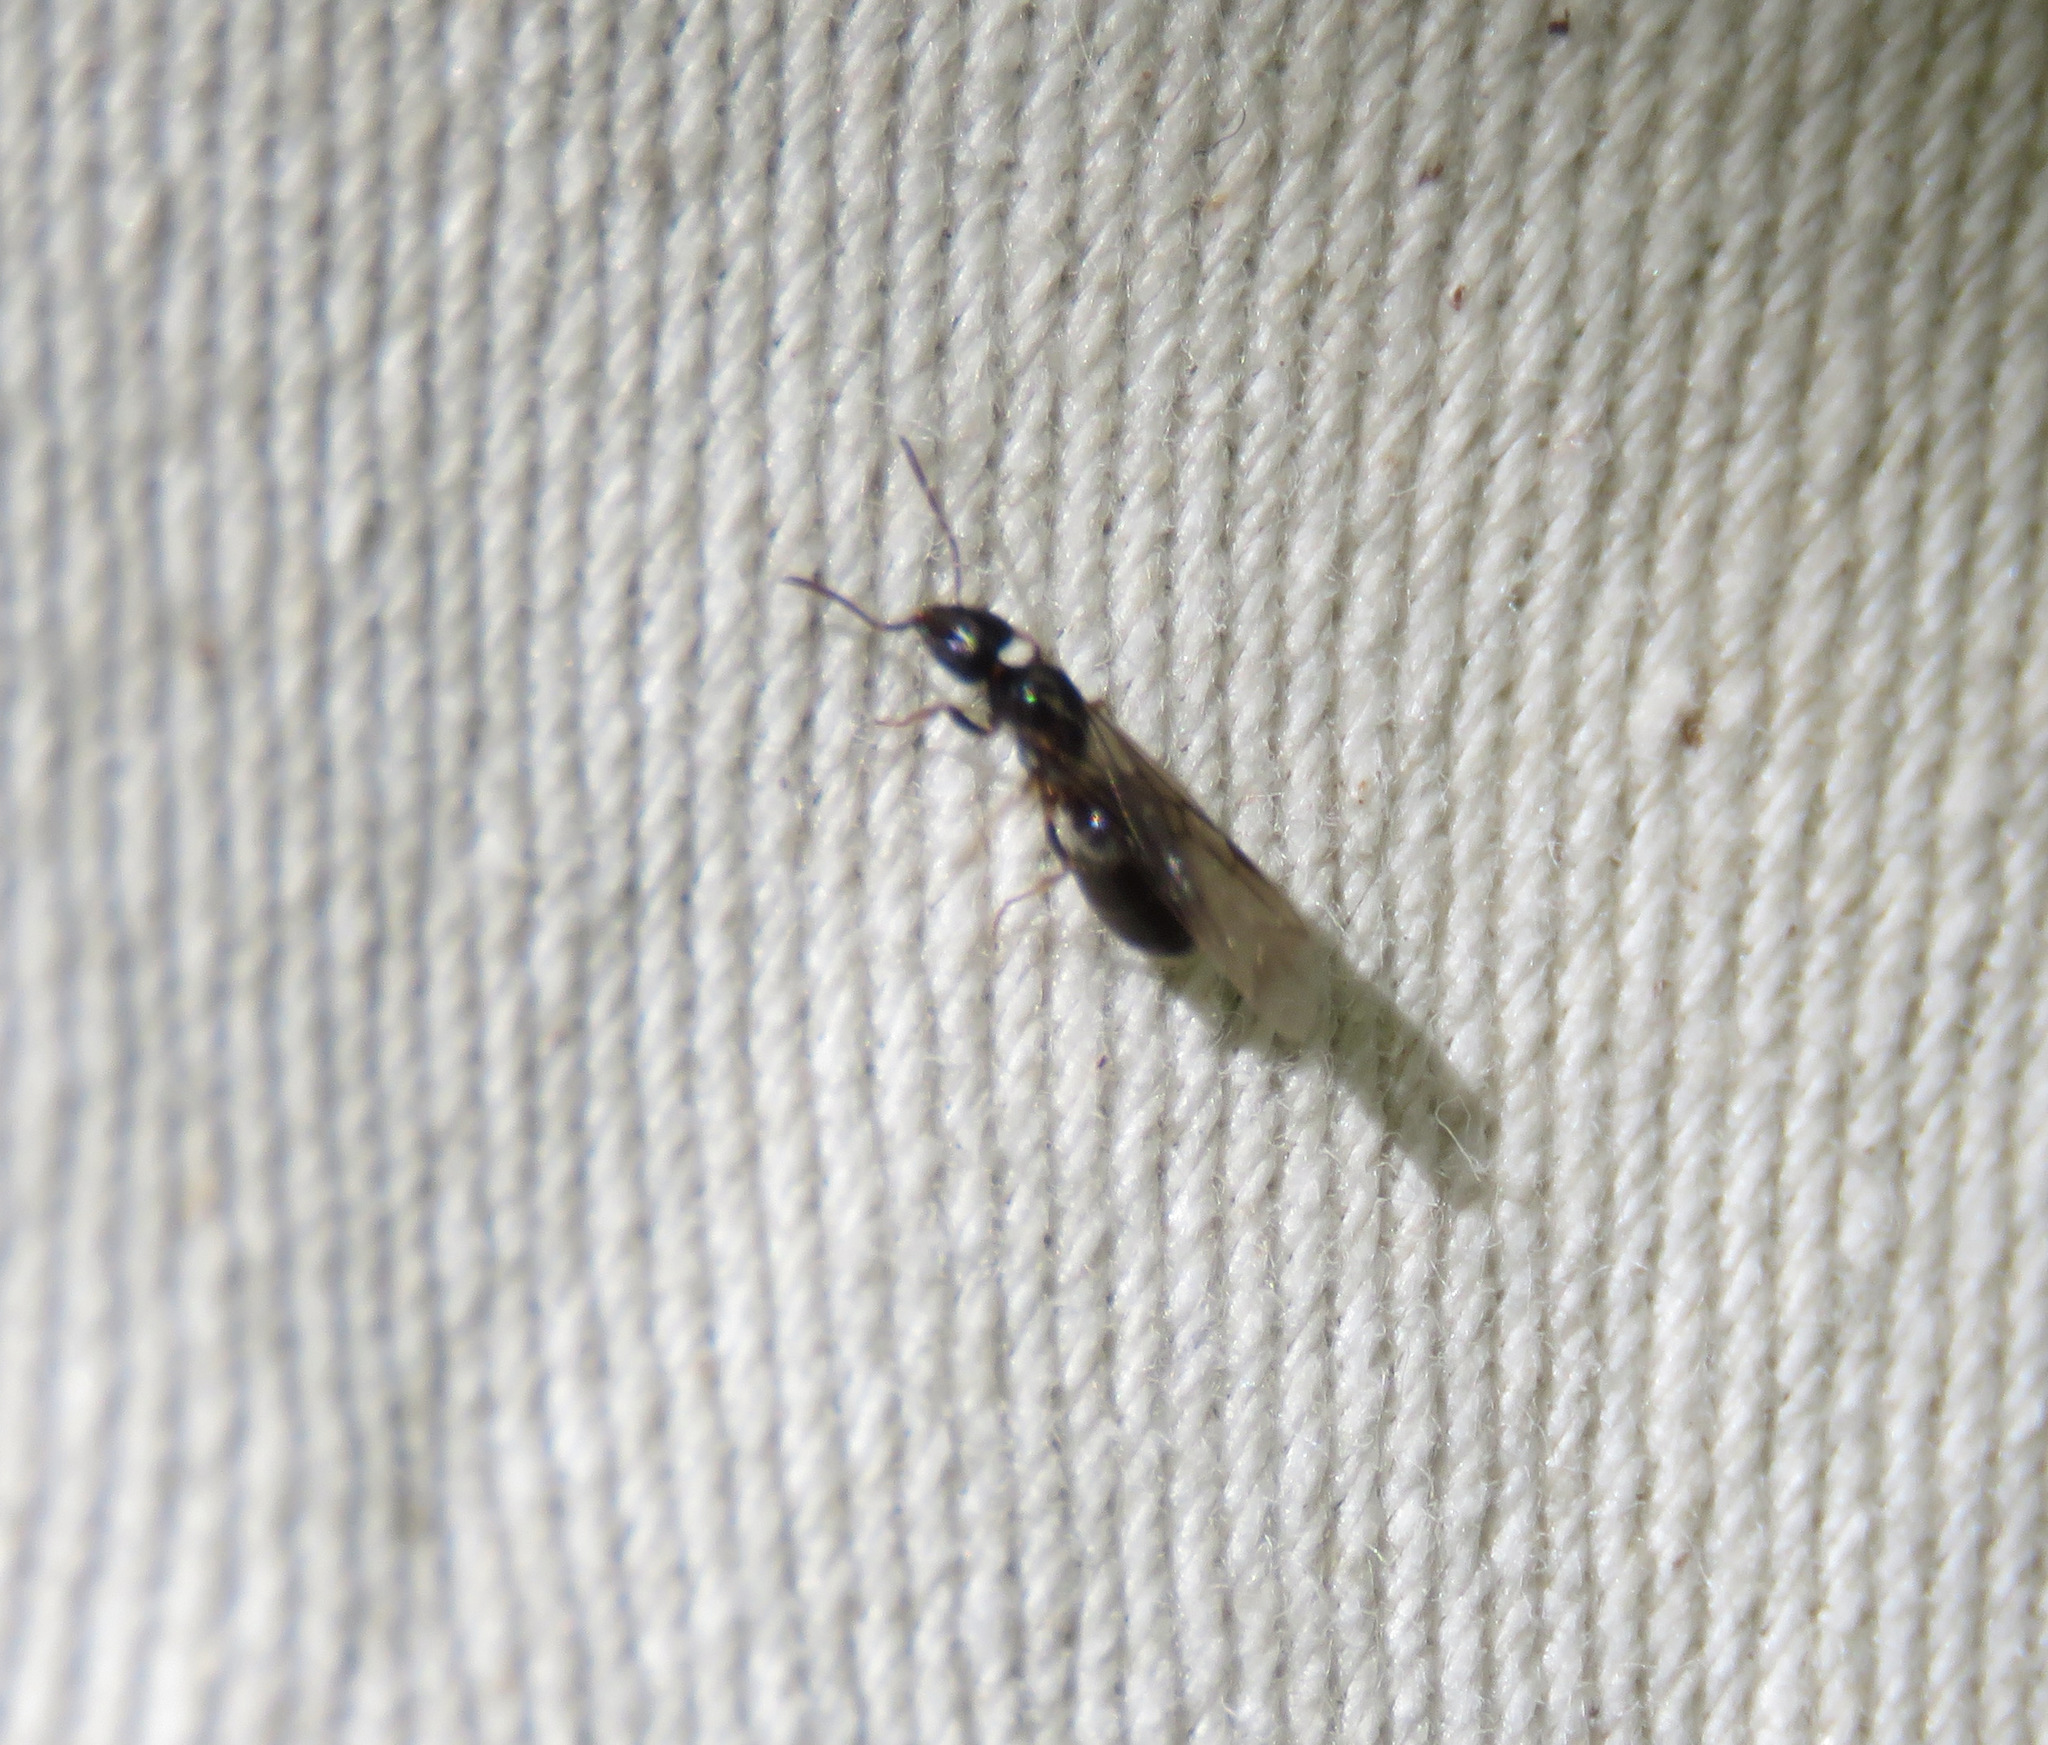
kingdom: Animalia
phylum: Arthropoda
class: Insecta
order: Hymenoptera
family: Formicidae
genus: Liometopum
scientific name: Liometopum luctuosum
